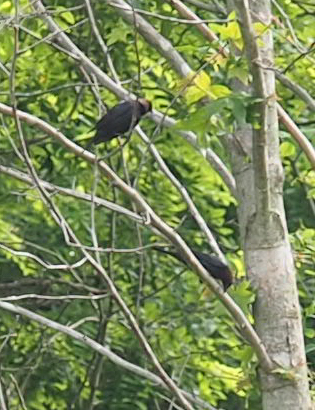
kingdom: Animalia
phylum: Chordata
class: Aves
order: Passeriformes
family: Icteridae
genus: Molothrus
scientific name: Molothrus ater
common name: Brown-headed cowbird
